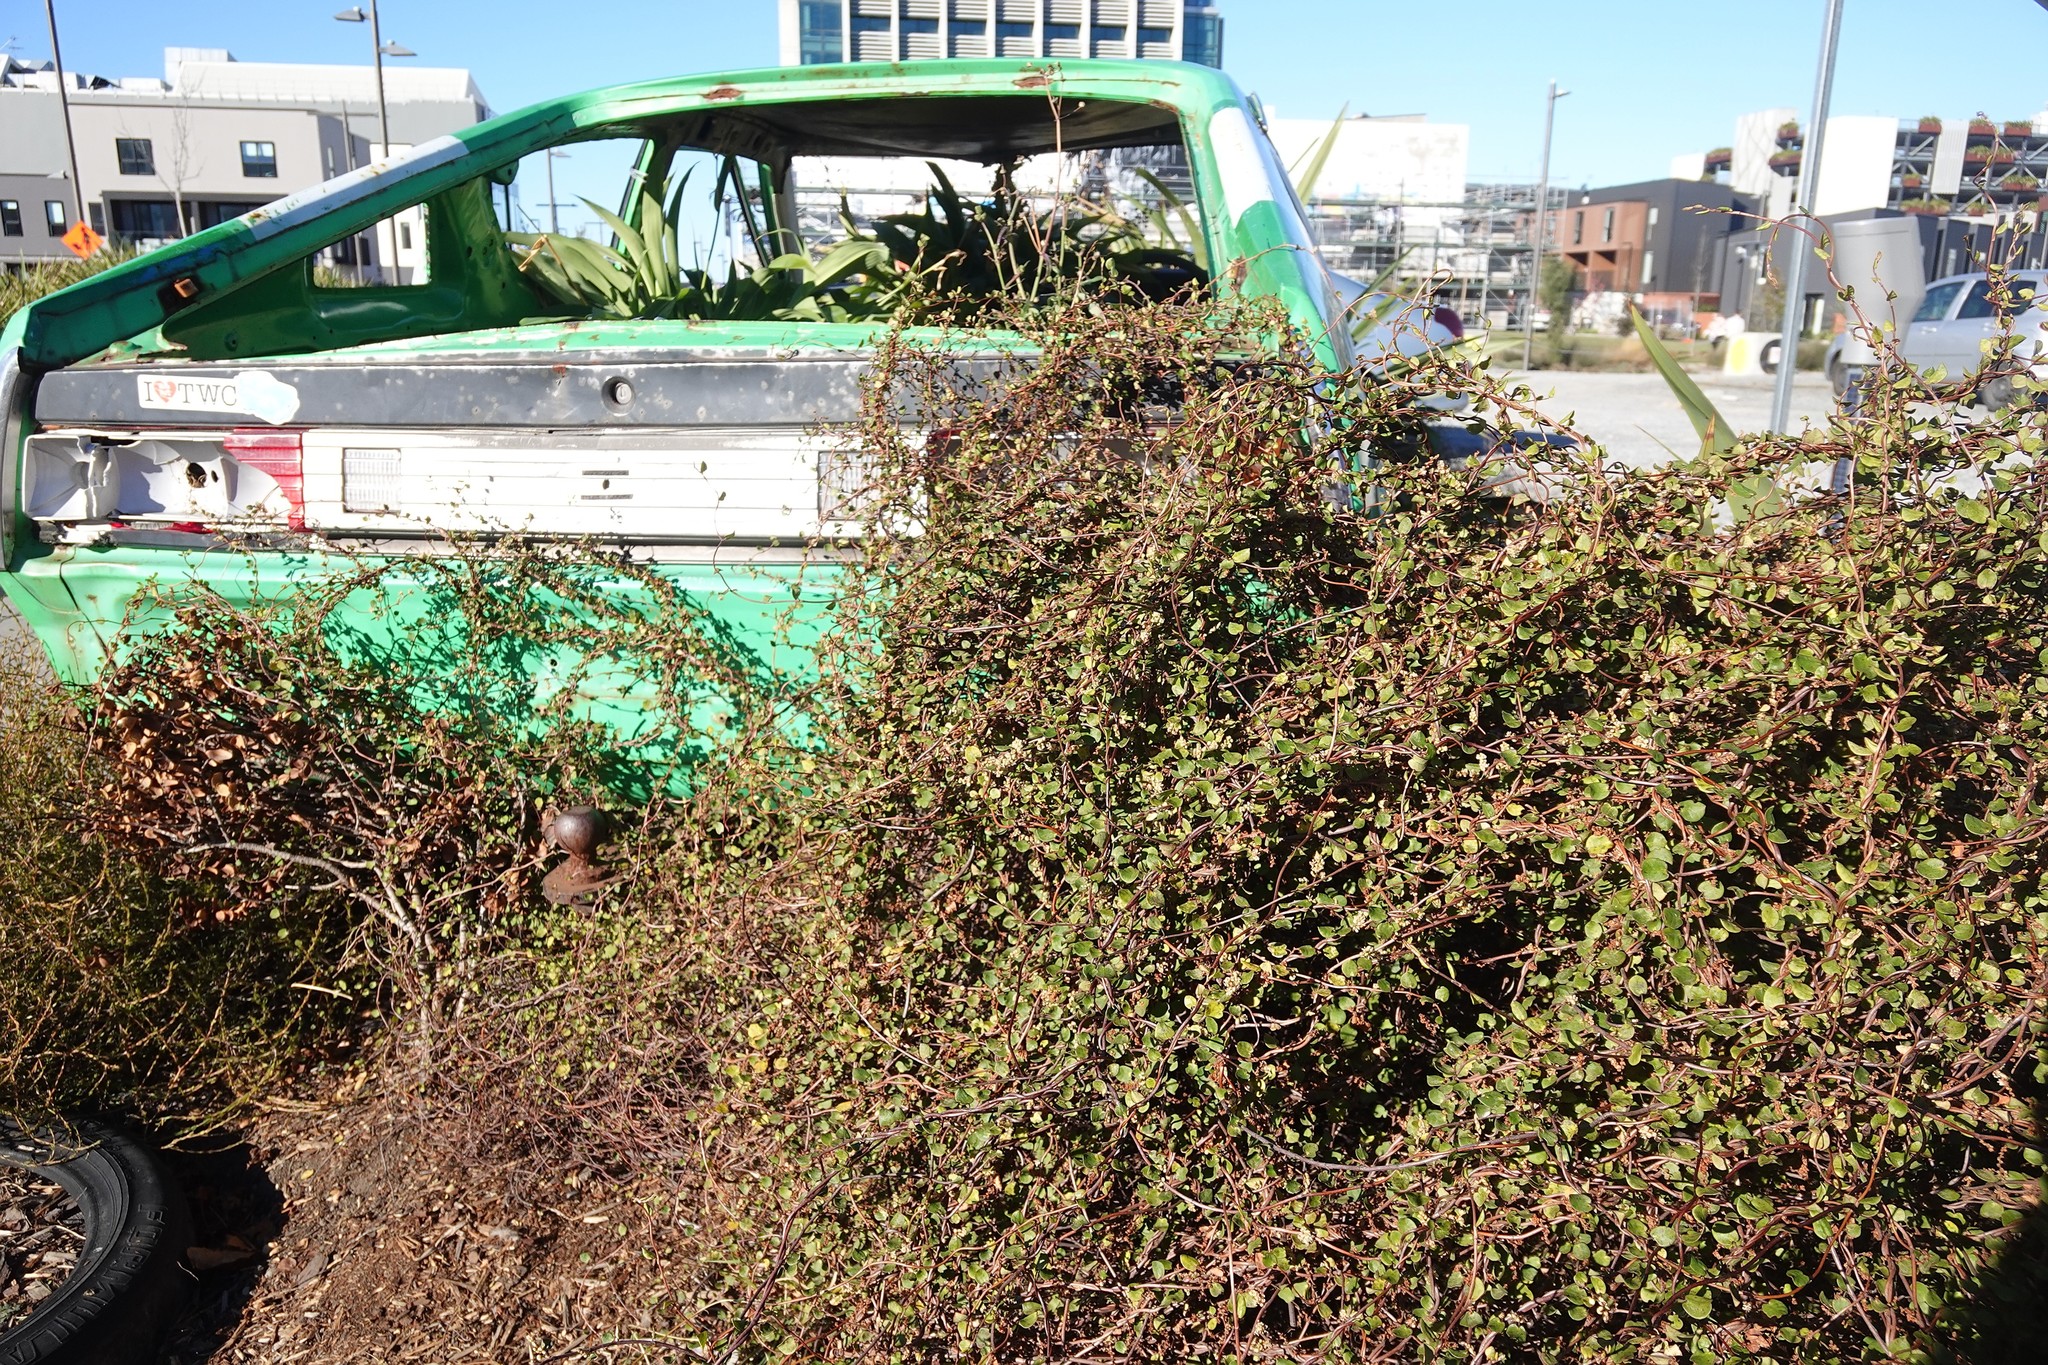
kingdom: Plantae
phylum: Tracheophyta
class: Magnoliopsida
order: Caryophyllales
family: Polygonaceae
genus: Muehlenbeckia
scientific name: Muehlenbeckia complexa
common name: Wireplant
